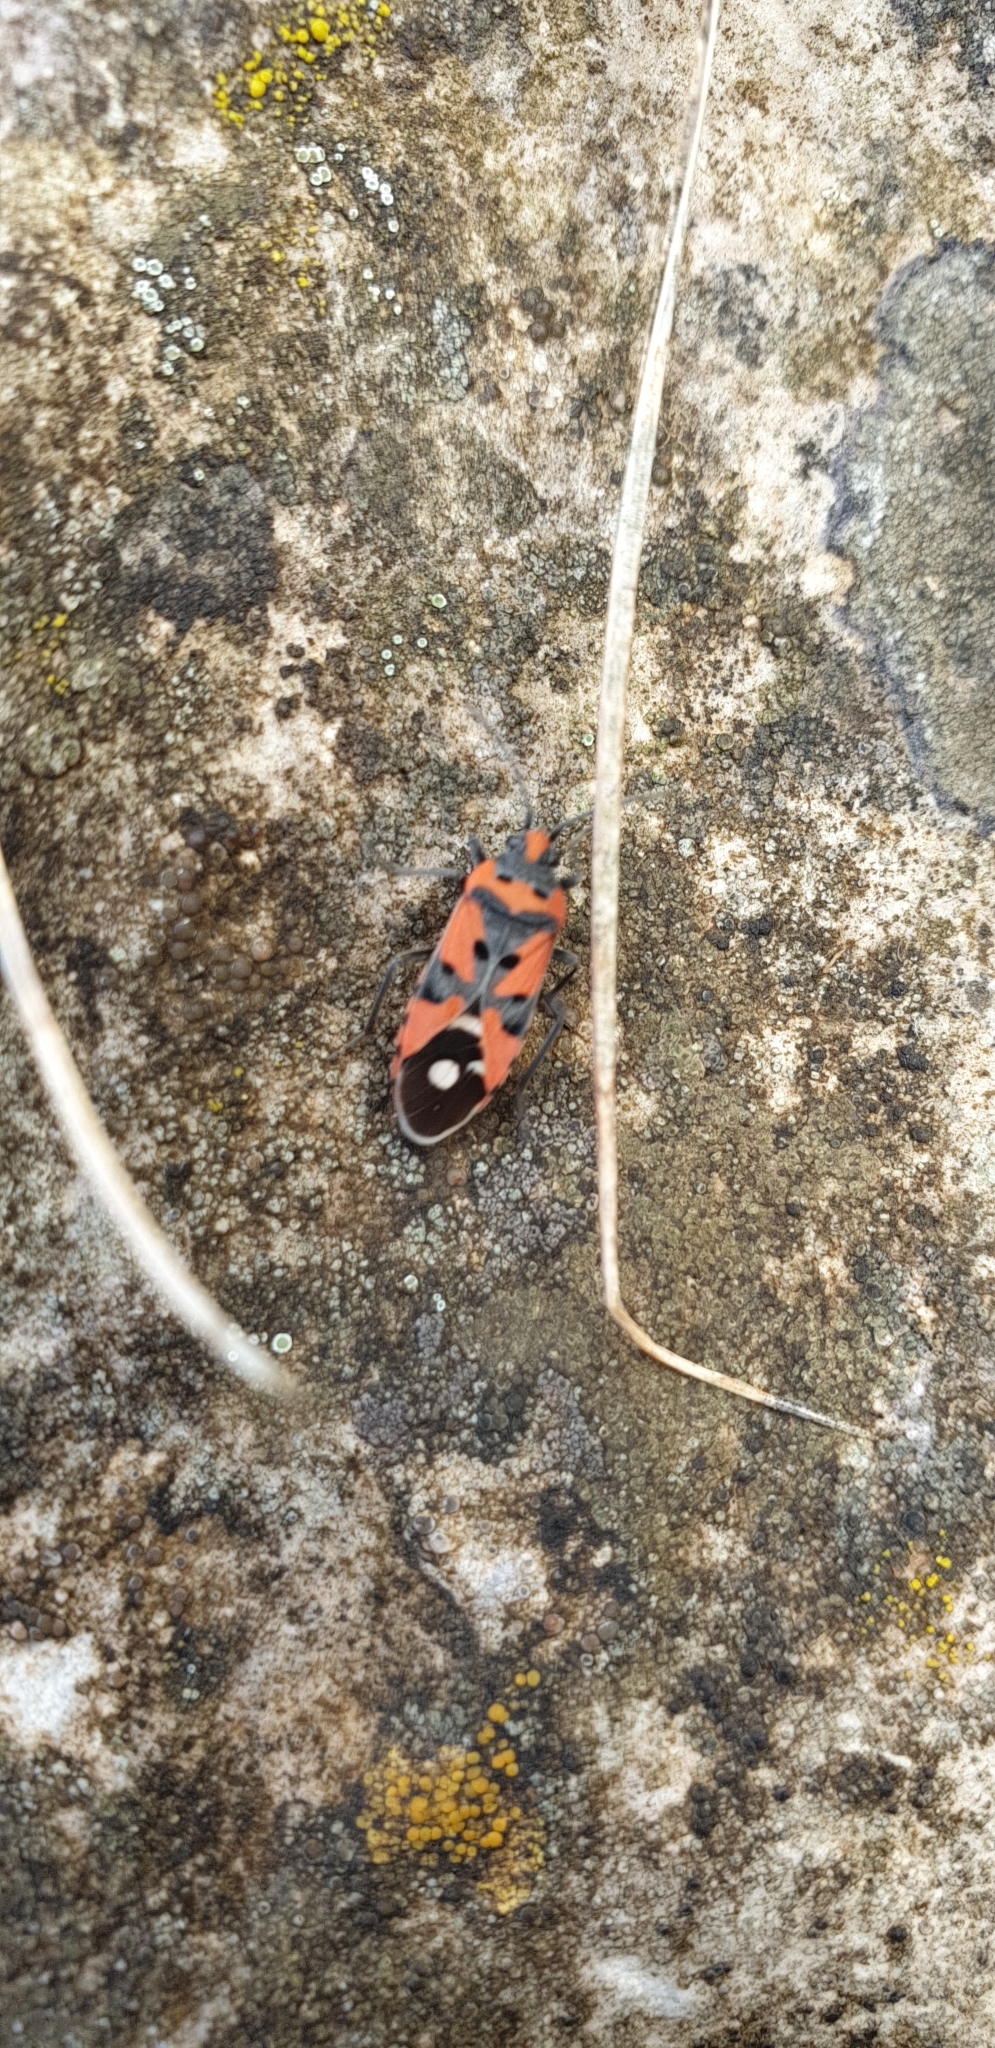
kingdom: Animalia
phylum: Arthropoda
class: Insecta
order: Hemiptera
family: Lygaeidae
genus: Lygaeus
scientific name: Lygaeus equestris
